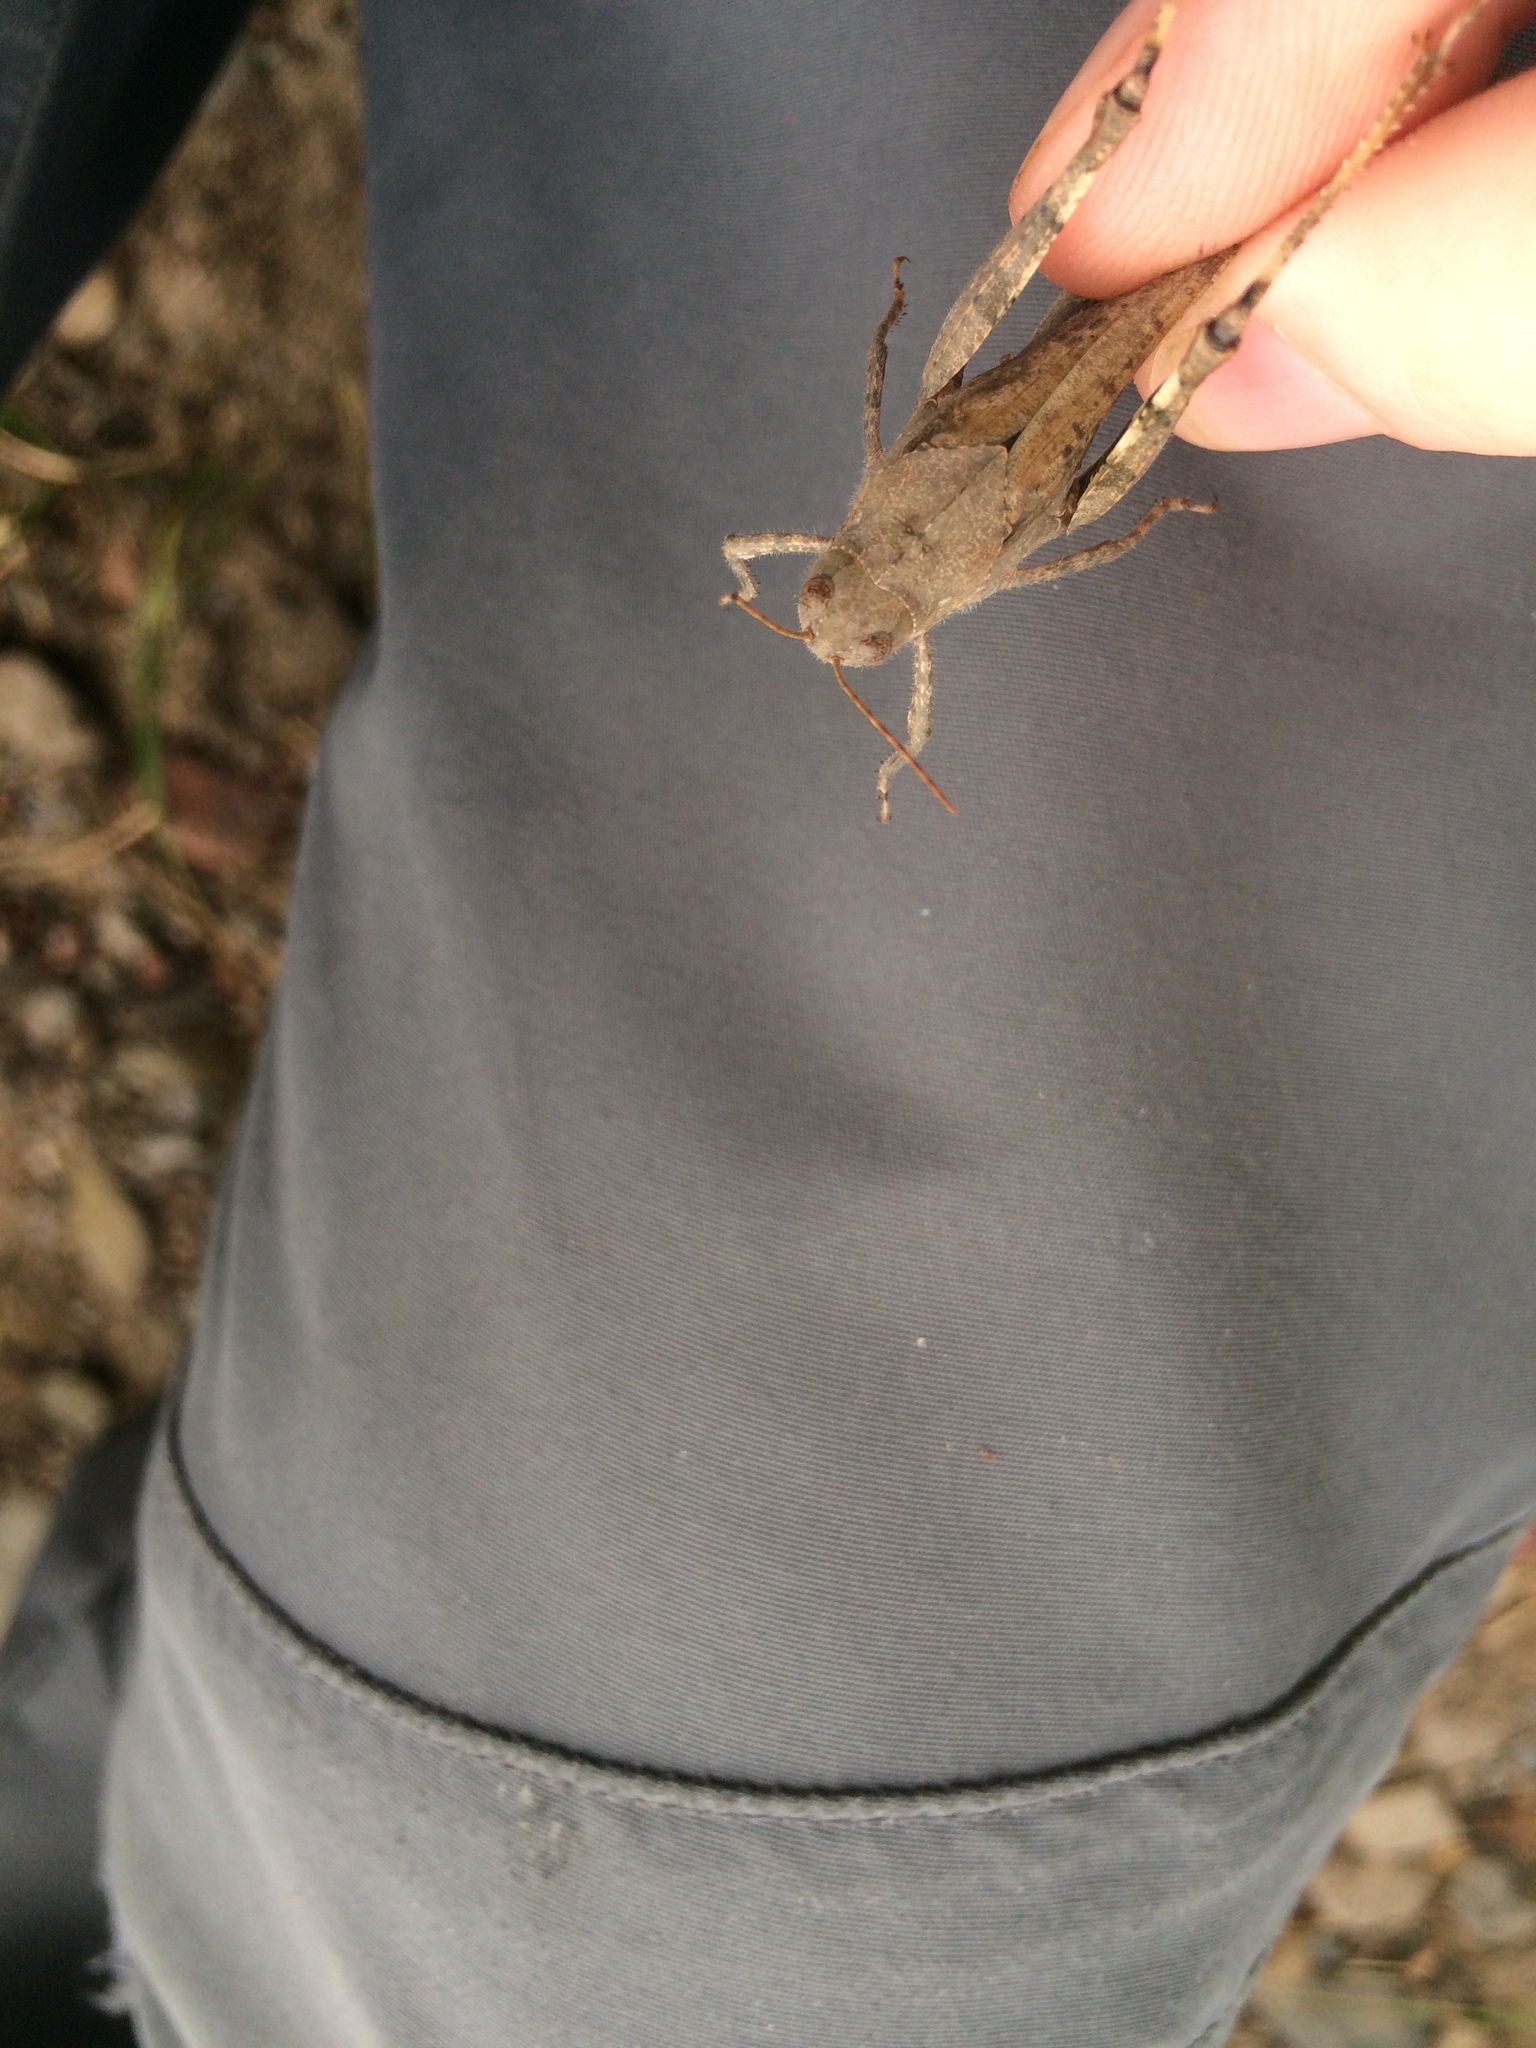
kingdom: Animalia
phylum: Arthropoda
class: Insecta
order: Orthoptera
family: Acrididae
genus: Dissosteira
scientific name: Dissosteira carolina
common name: Carolina grasshopper
